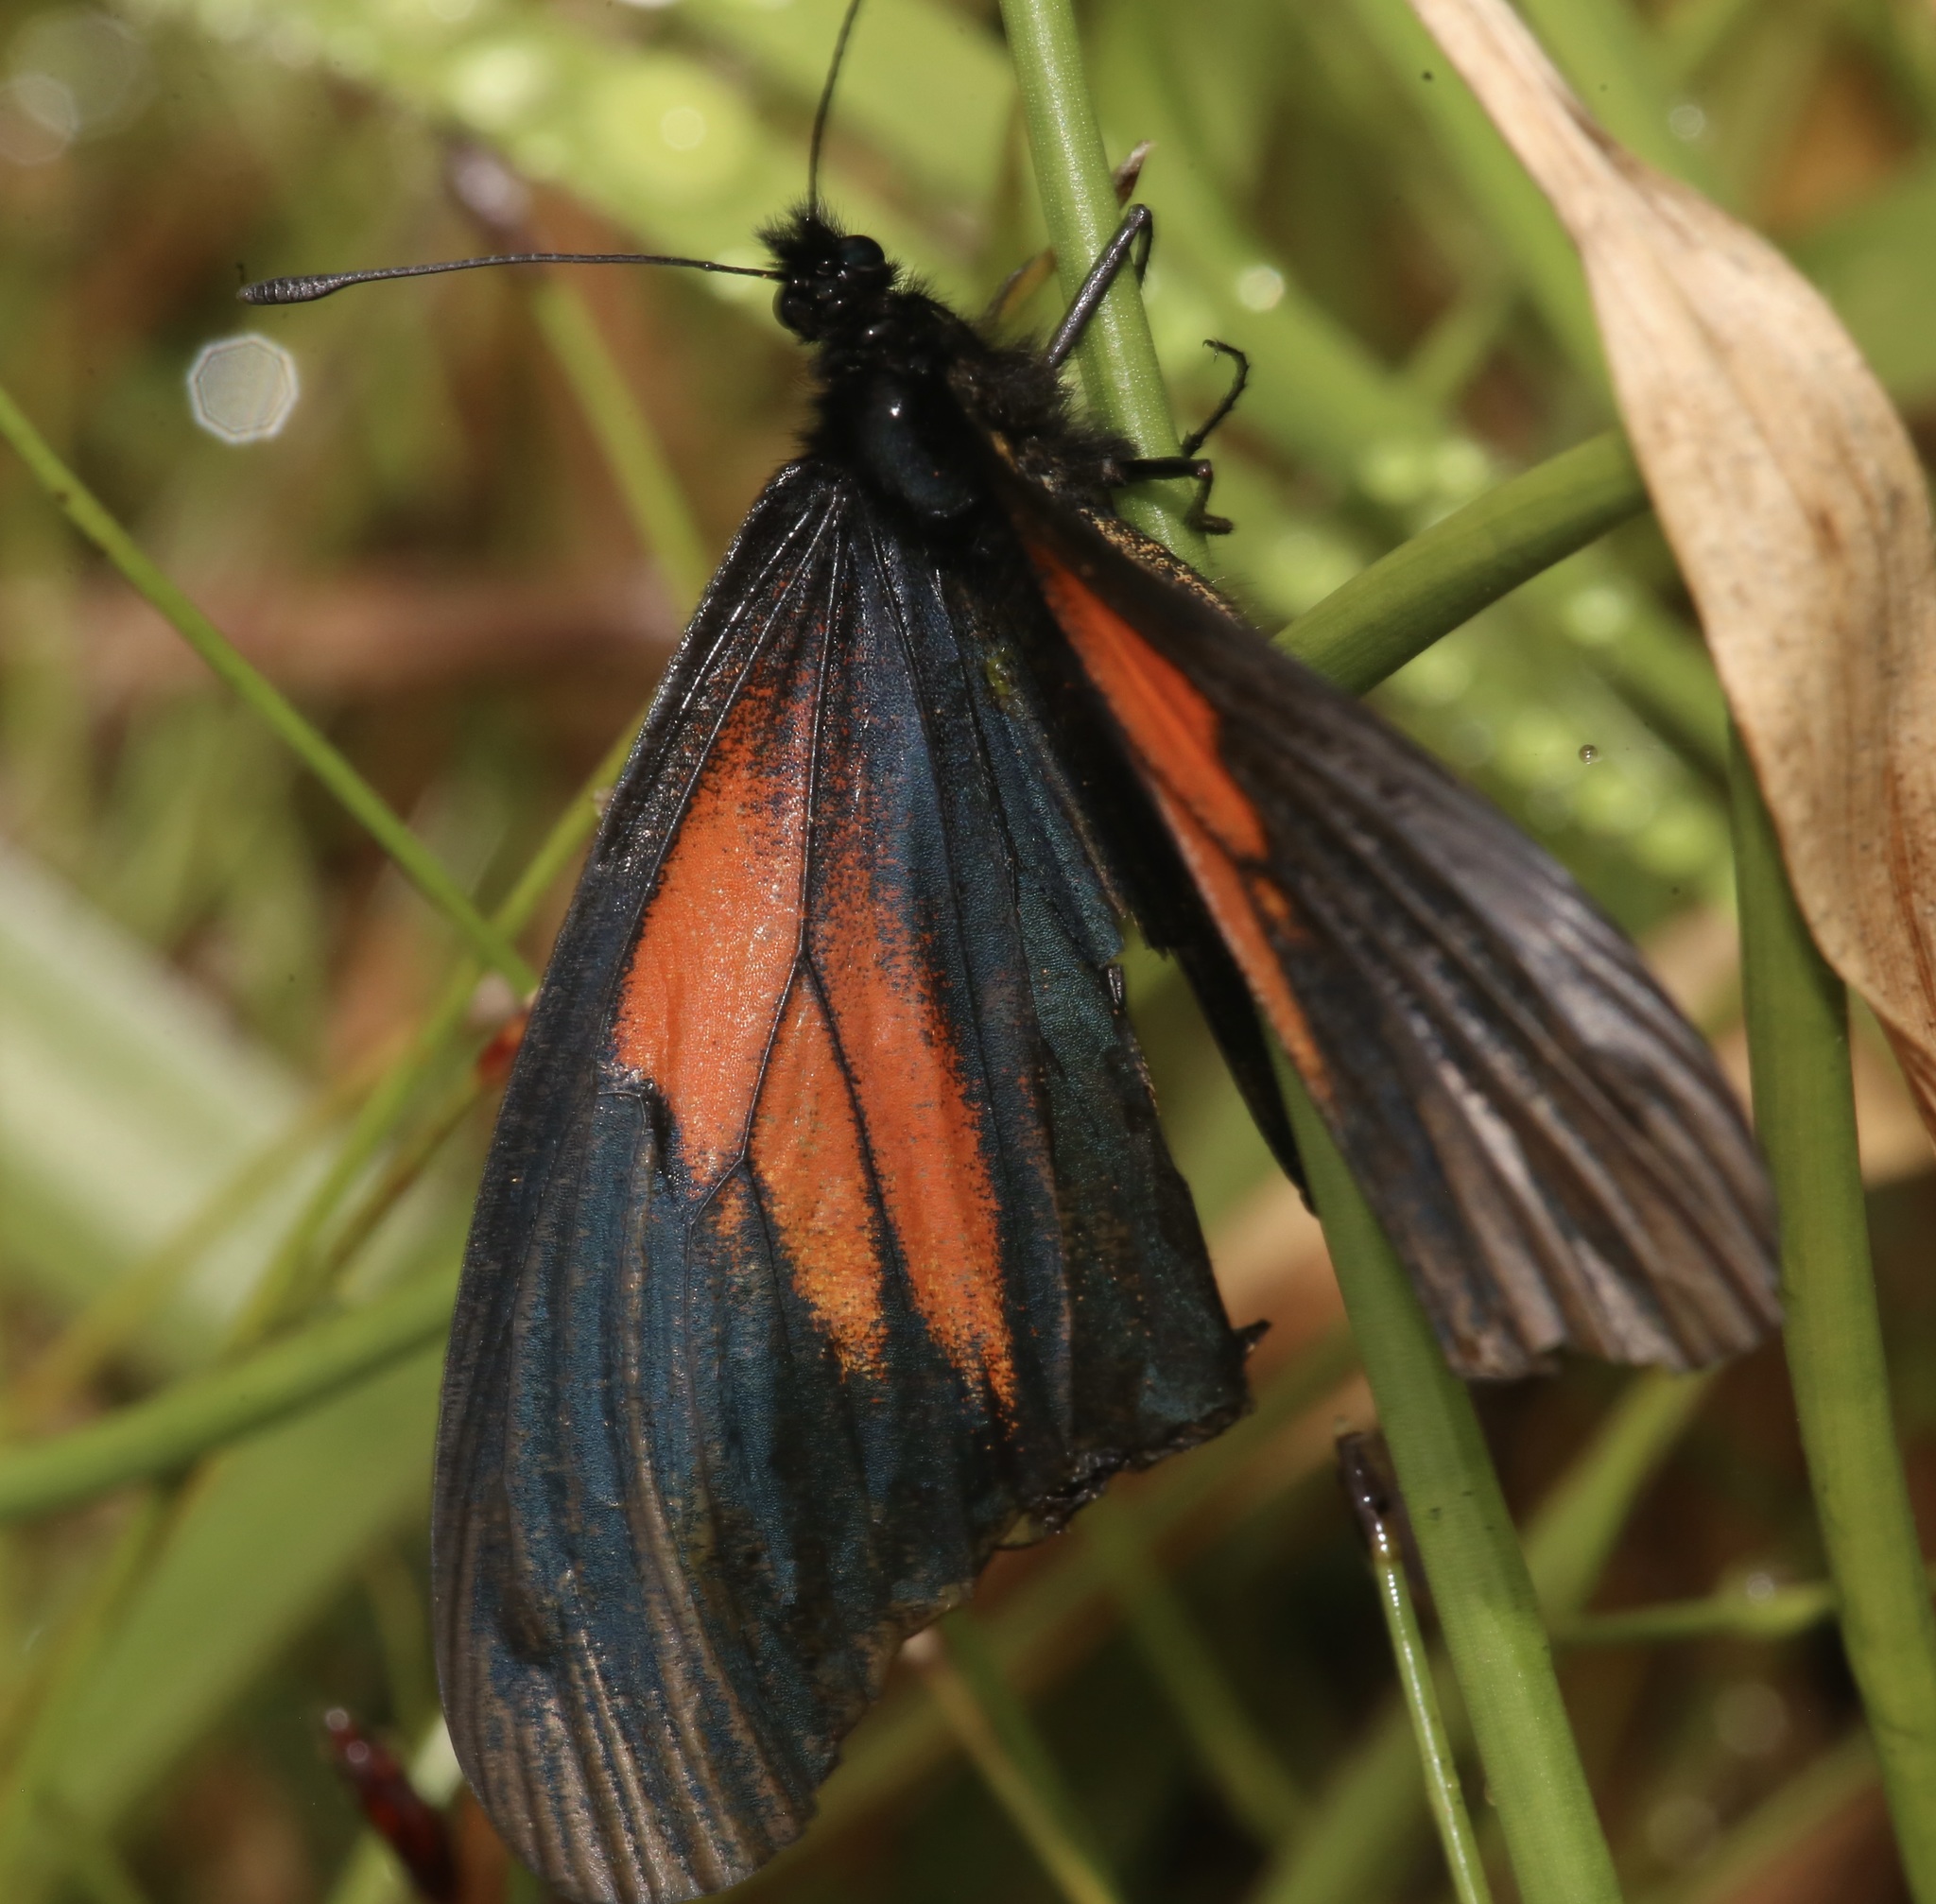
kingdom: Animalia
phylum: Arthropoda
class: Insecta
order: Lepidoptera
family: Nymphalidae
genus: Acraea
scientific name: Acraea Altinote ozomene
